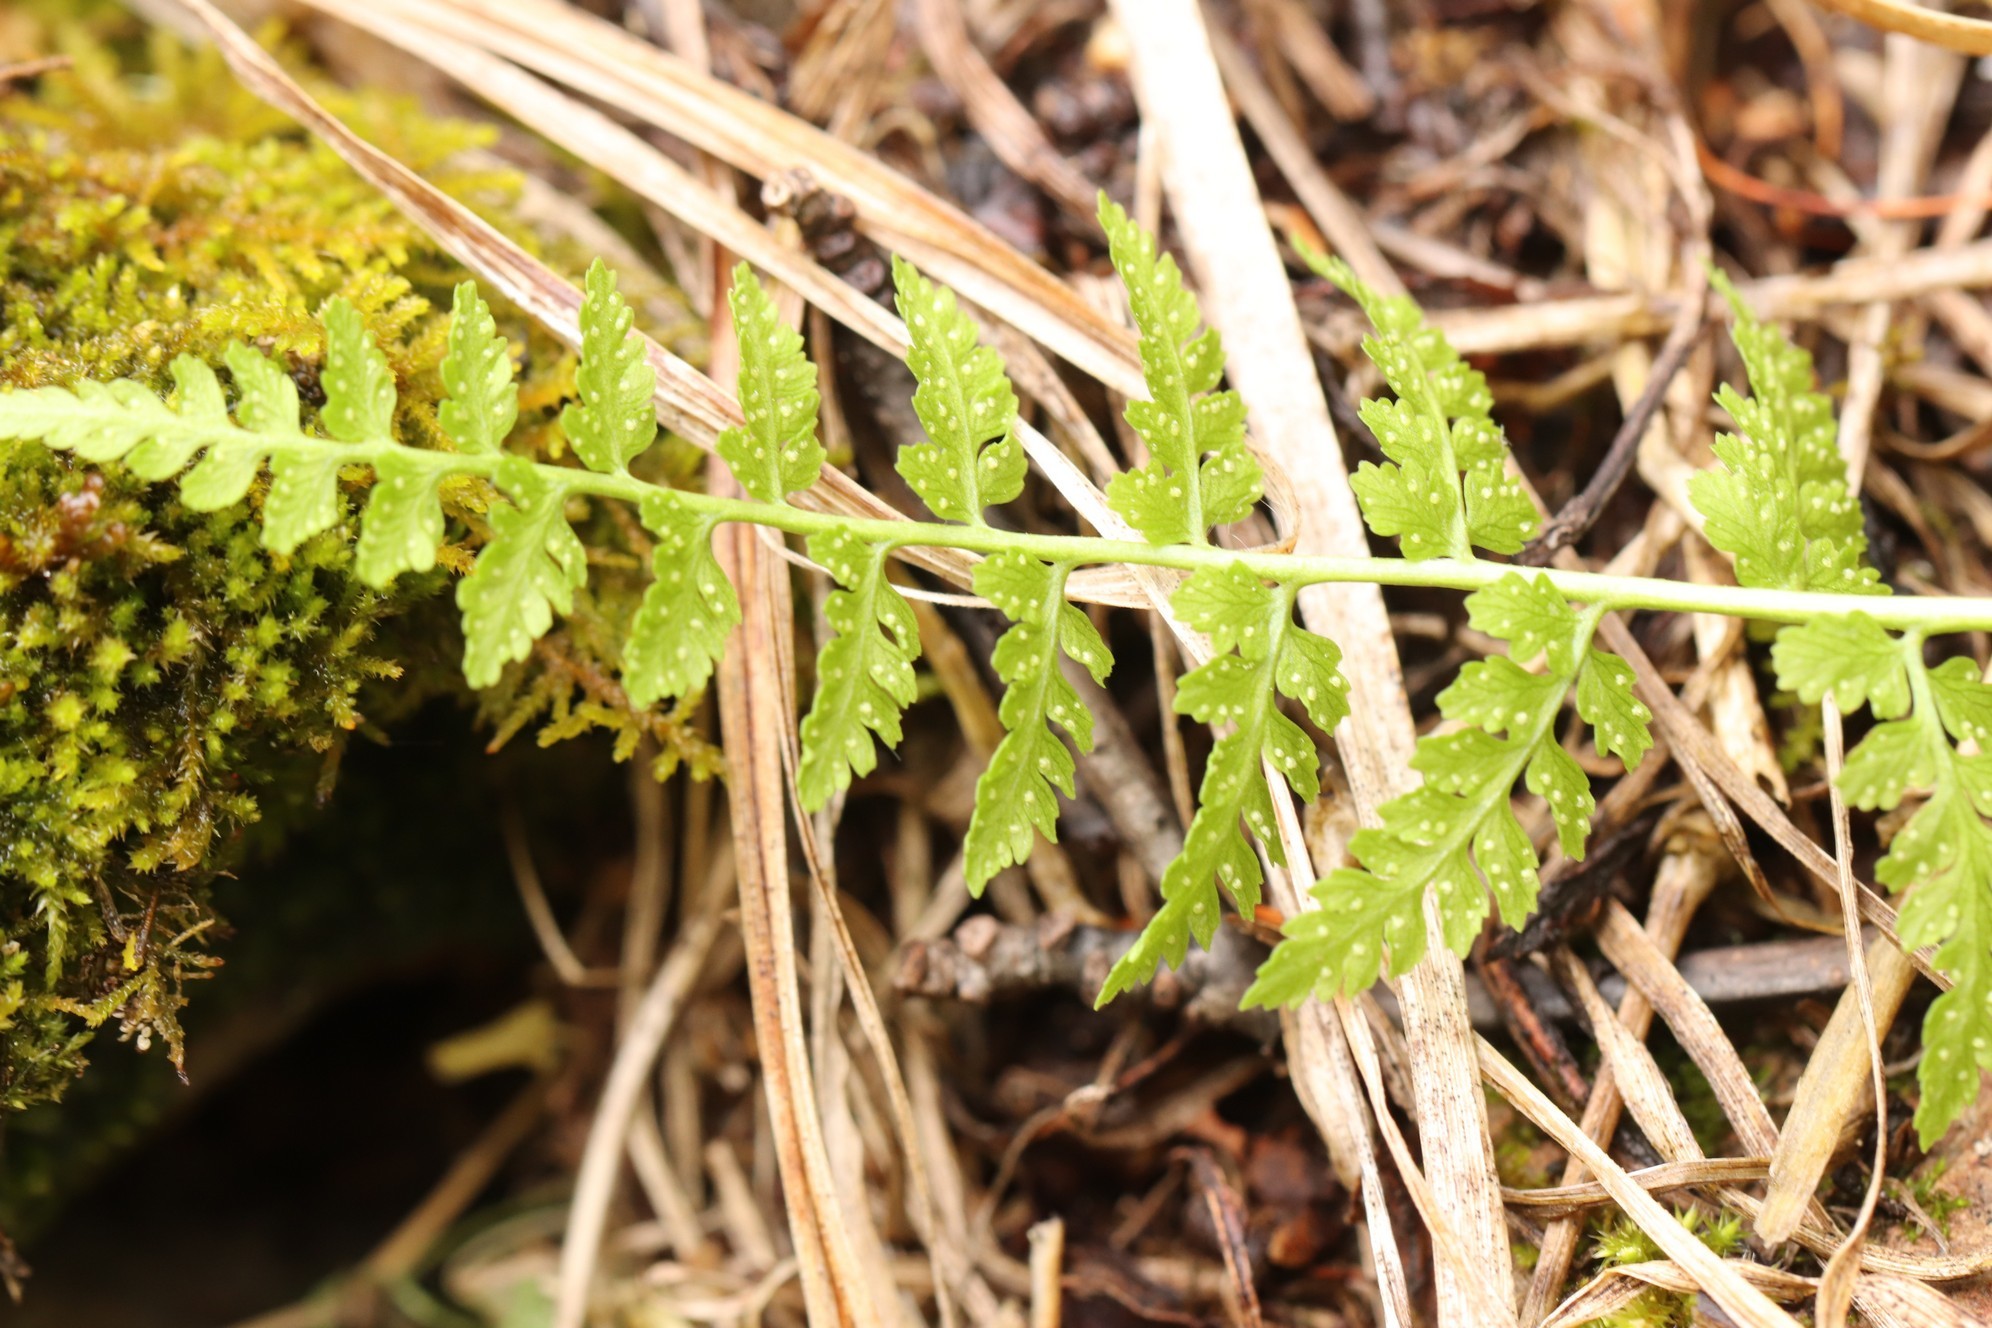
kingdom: Plantae
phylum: Tracheophyta
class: Polypodiopsida
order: Polypodiales
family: Cystopteridaceae
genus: Cystopteris
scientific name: Cystopteris fragilis
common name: Brittle bladder fern
